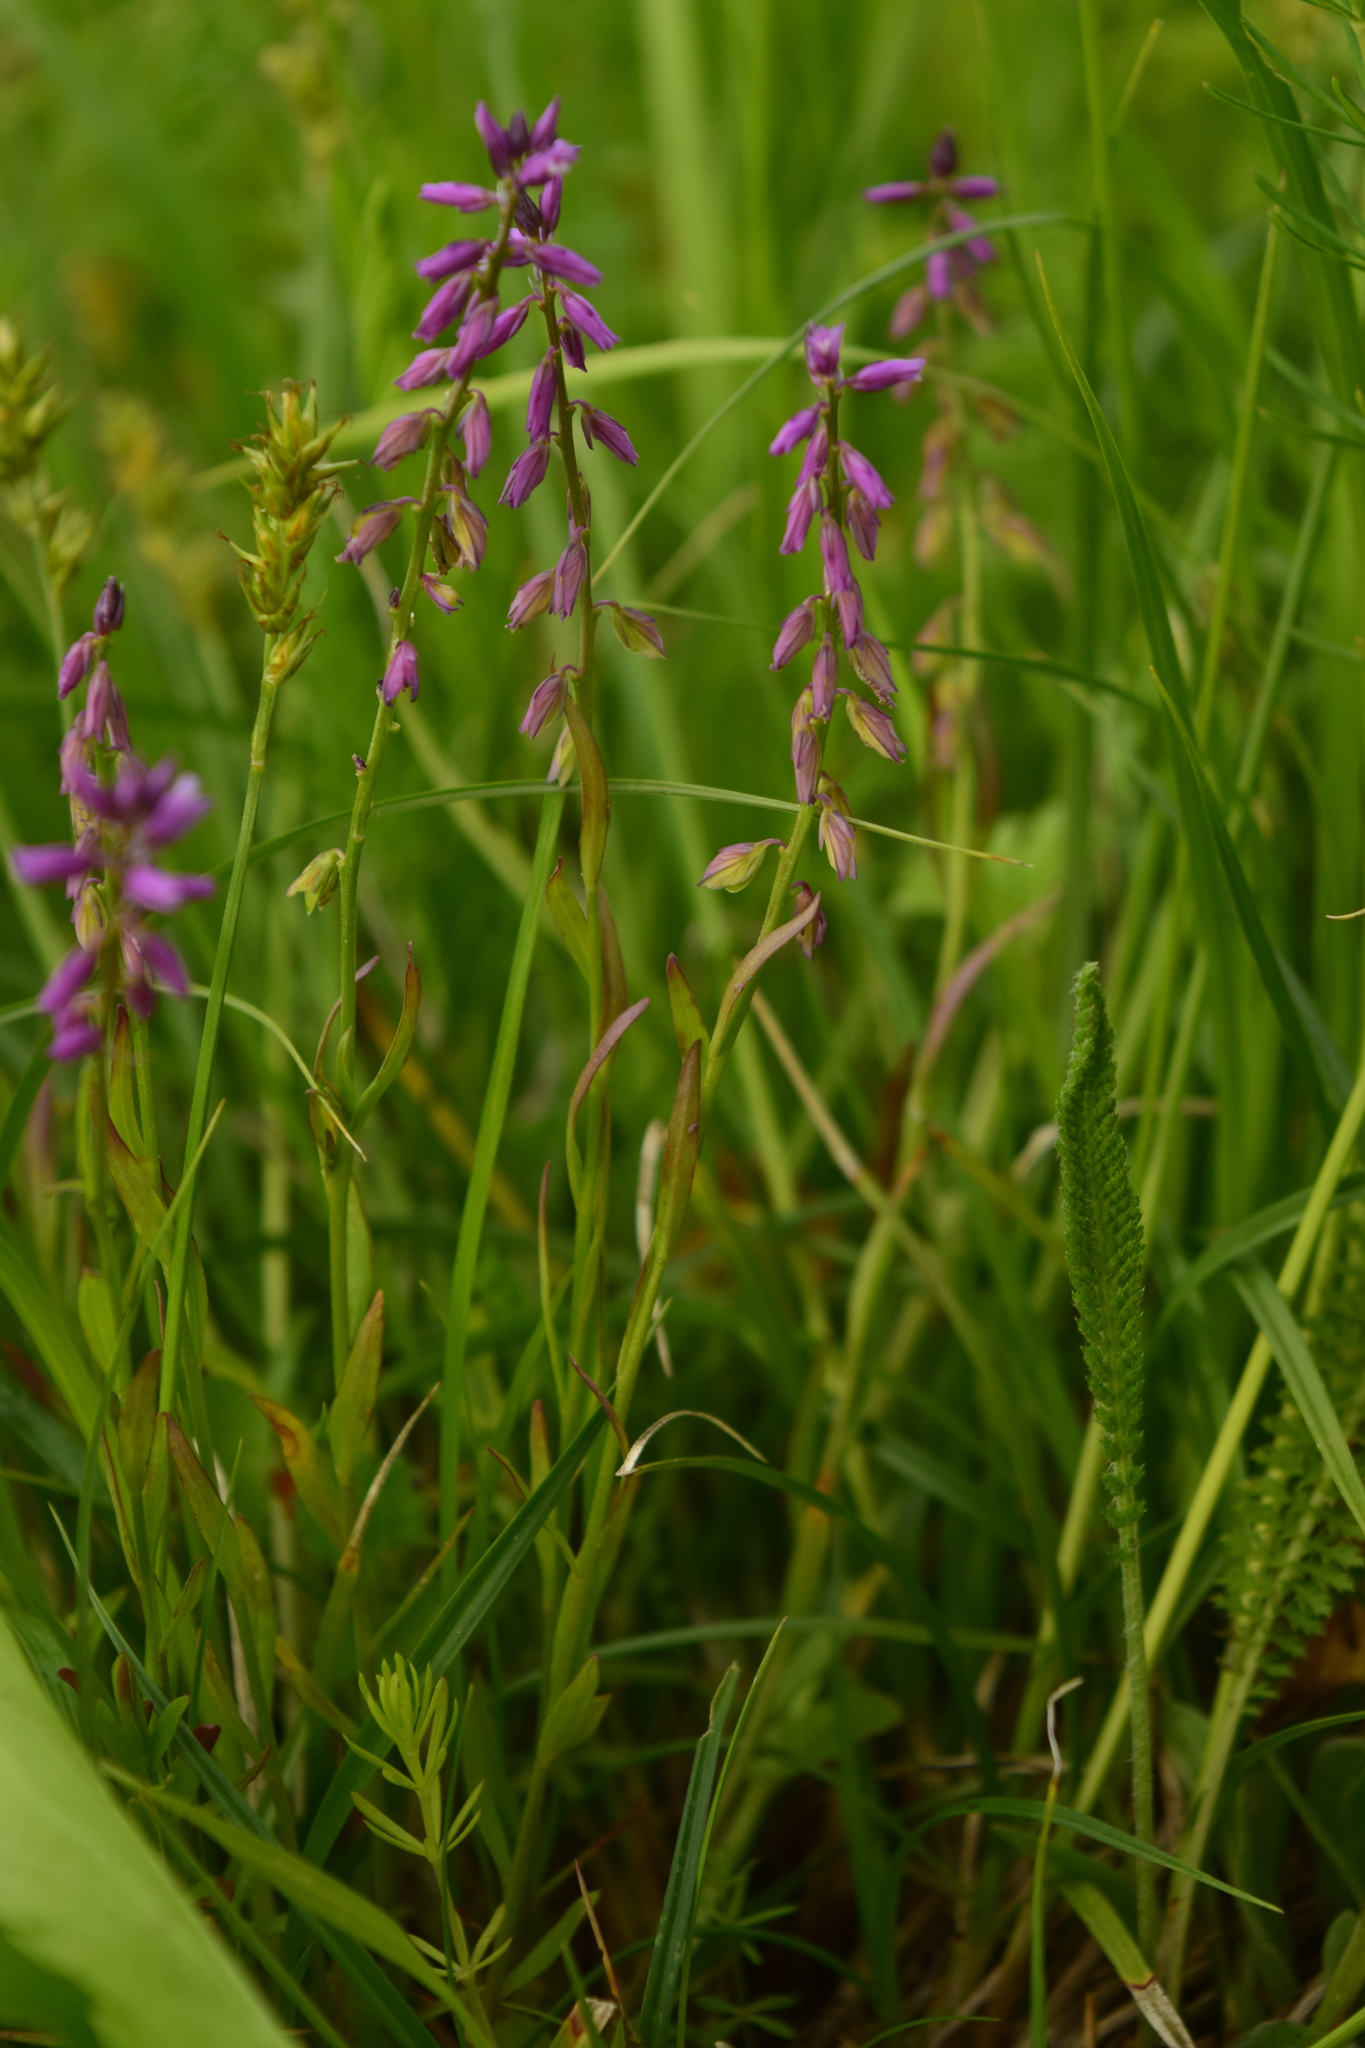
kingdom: Plantae
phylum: Tracheophyta
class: Magnoliopsida
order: Fabales
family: Polygalaceae
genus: Polygala
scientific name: Polygala comosa
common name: Tufted milkwort
